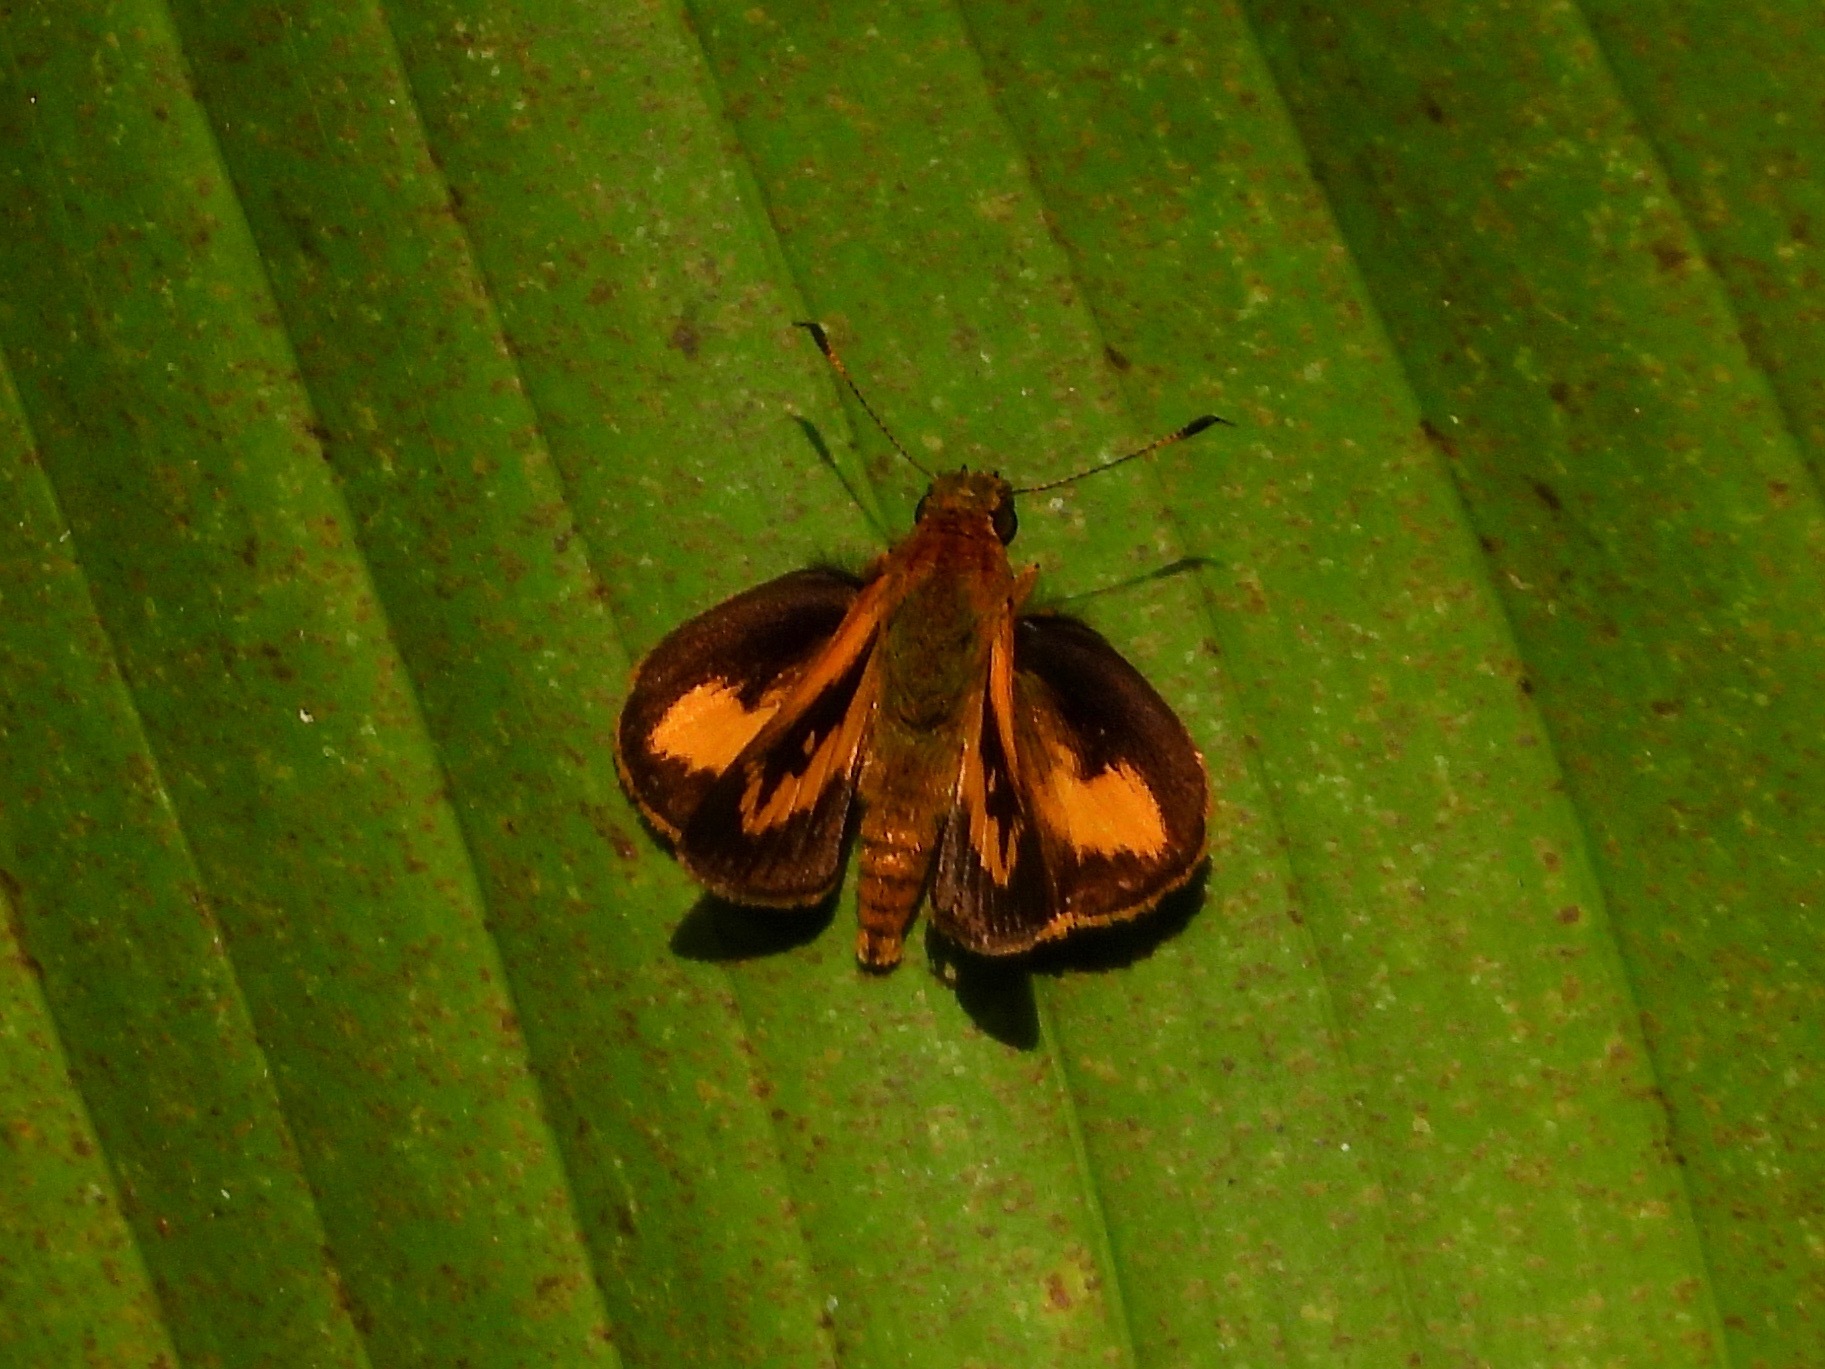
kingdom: Animalia
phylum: Arthropoda
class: Insecta
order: Lepidoptera
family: Hesperiidae
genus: Anthoptus
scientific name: Anthoptus epictetus
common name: Trailside skipper
